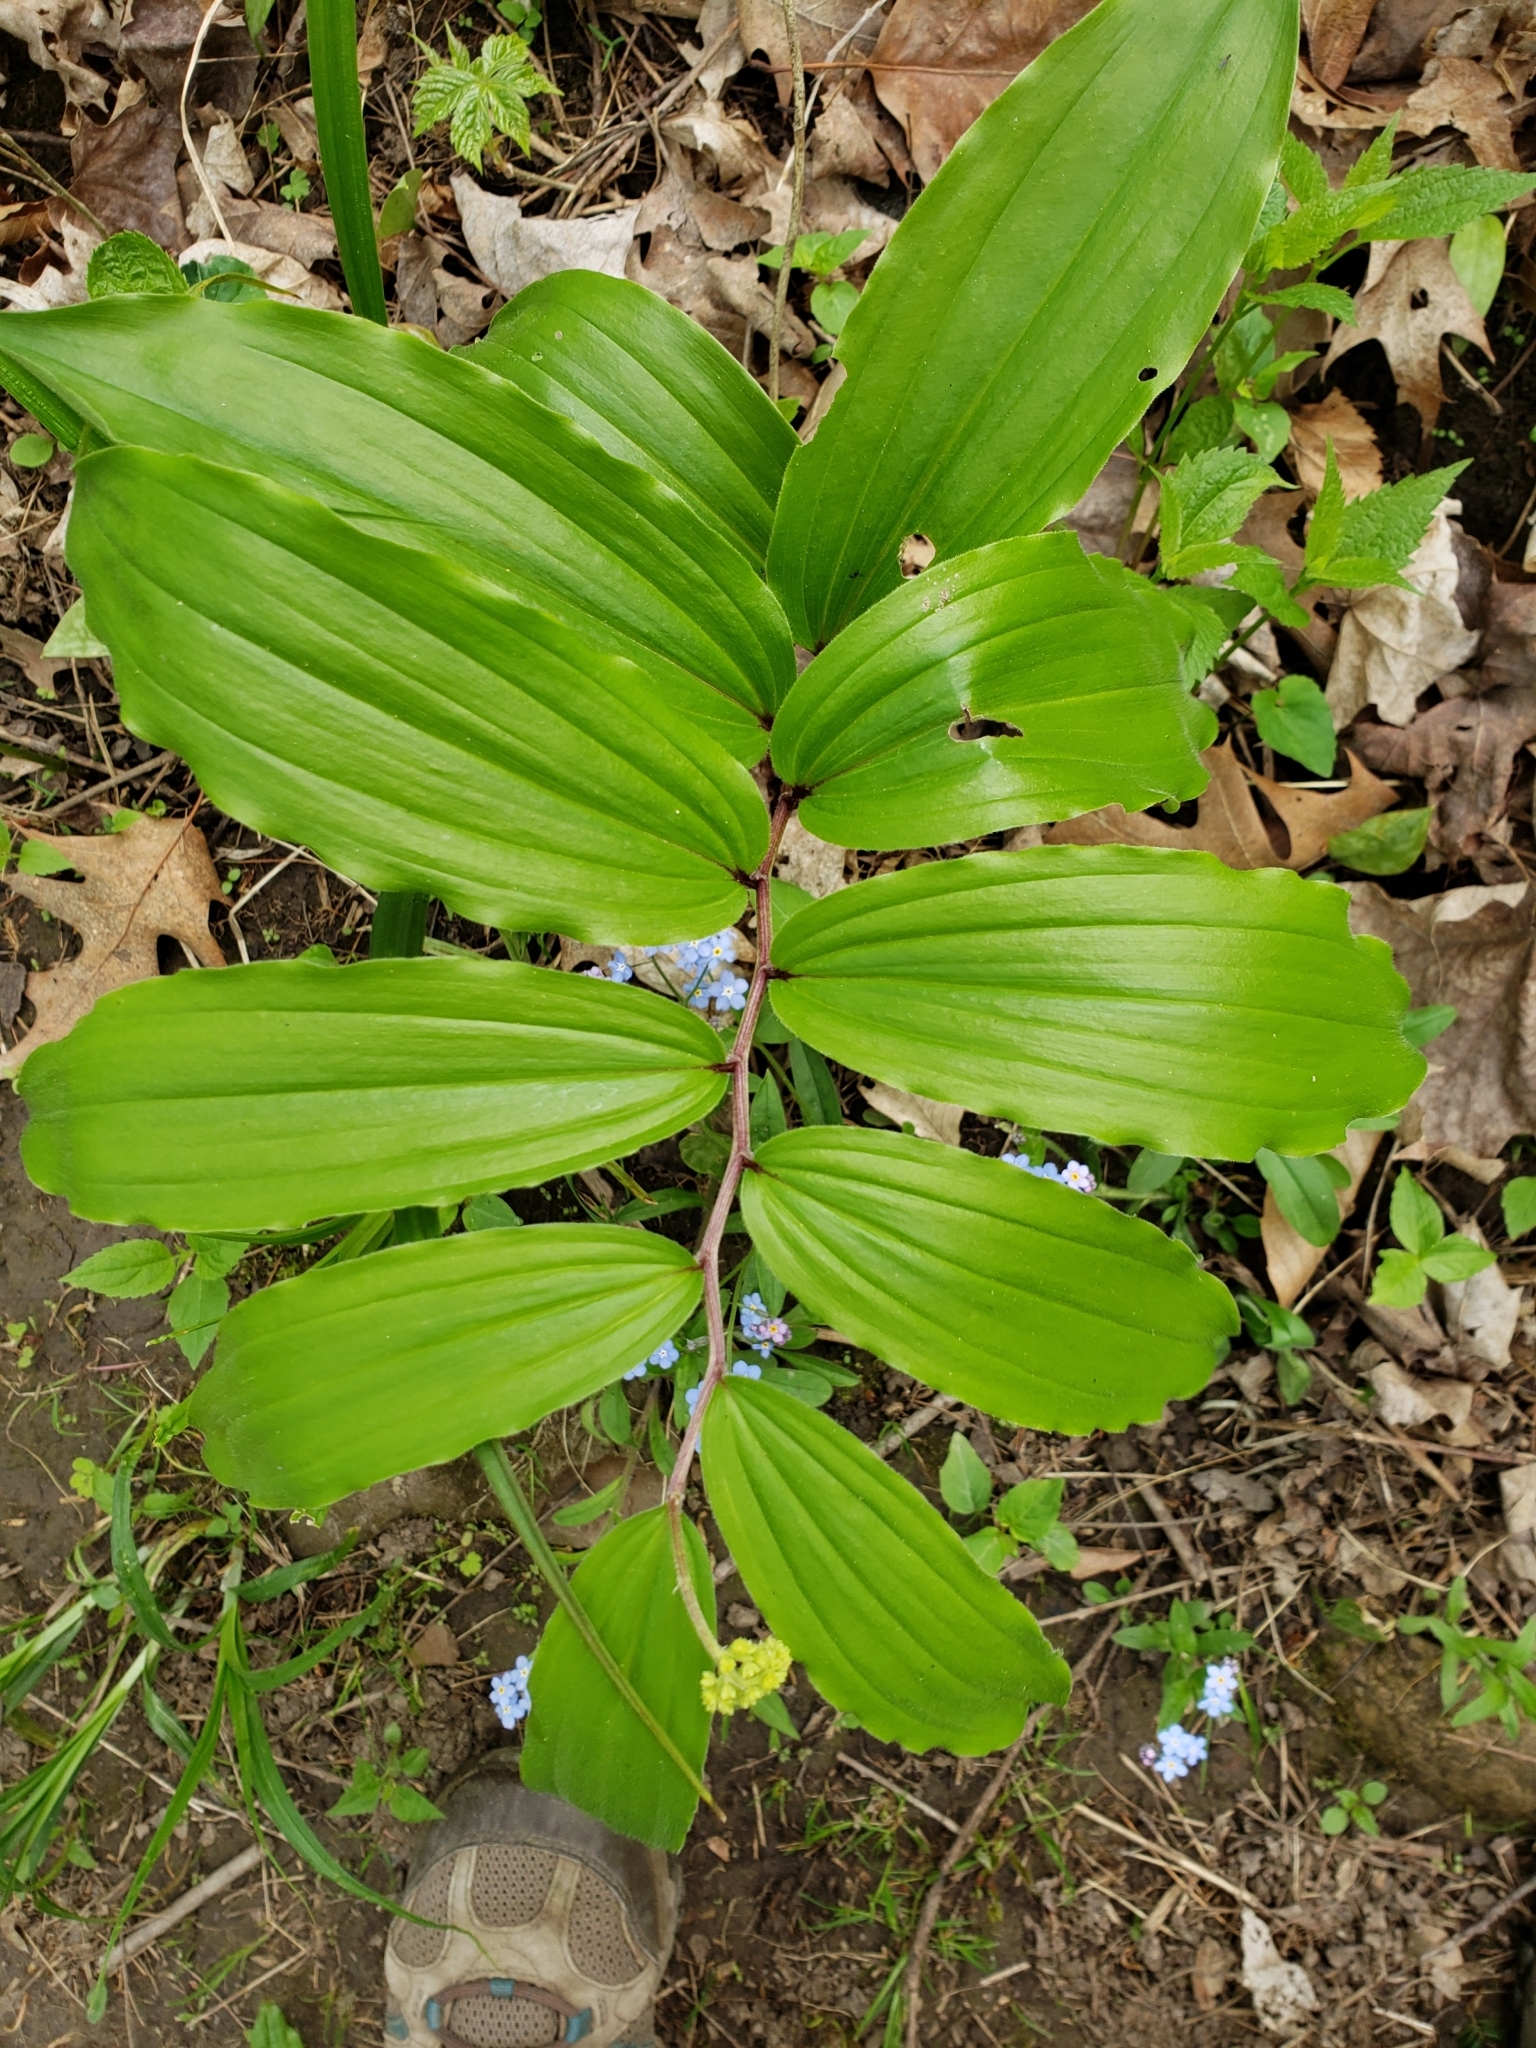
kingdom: Plantae
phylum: Tracheophyta
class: Liliopsida
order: Asparagales
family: Asparagaceae
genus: Maianthemum
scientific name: Maianthemum racemosum
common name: False spikenard
